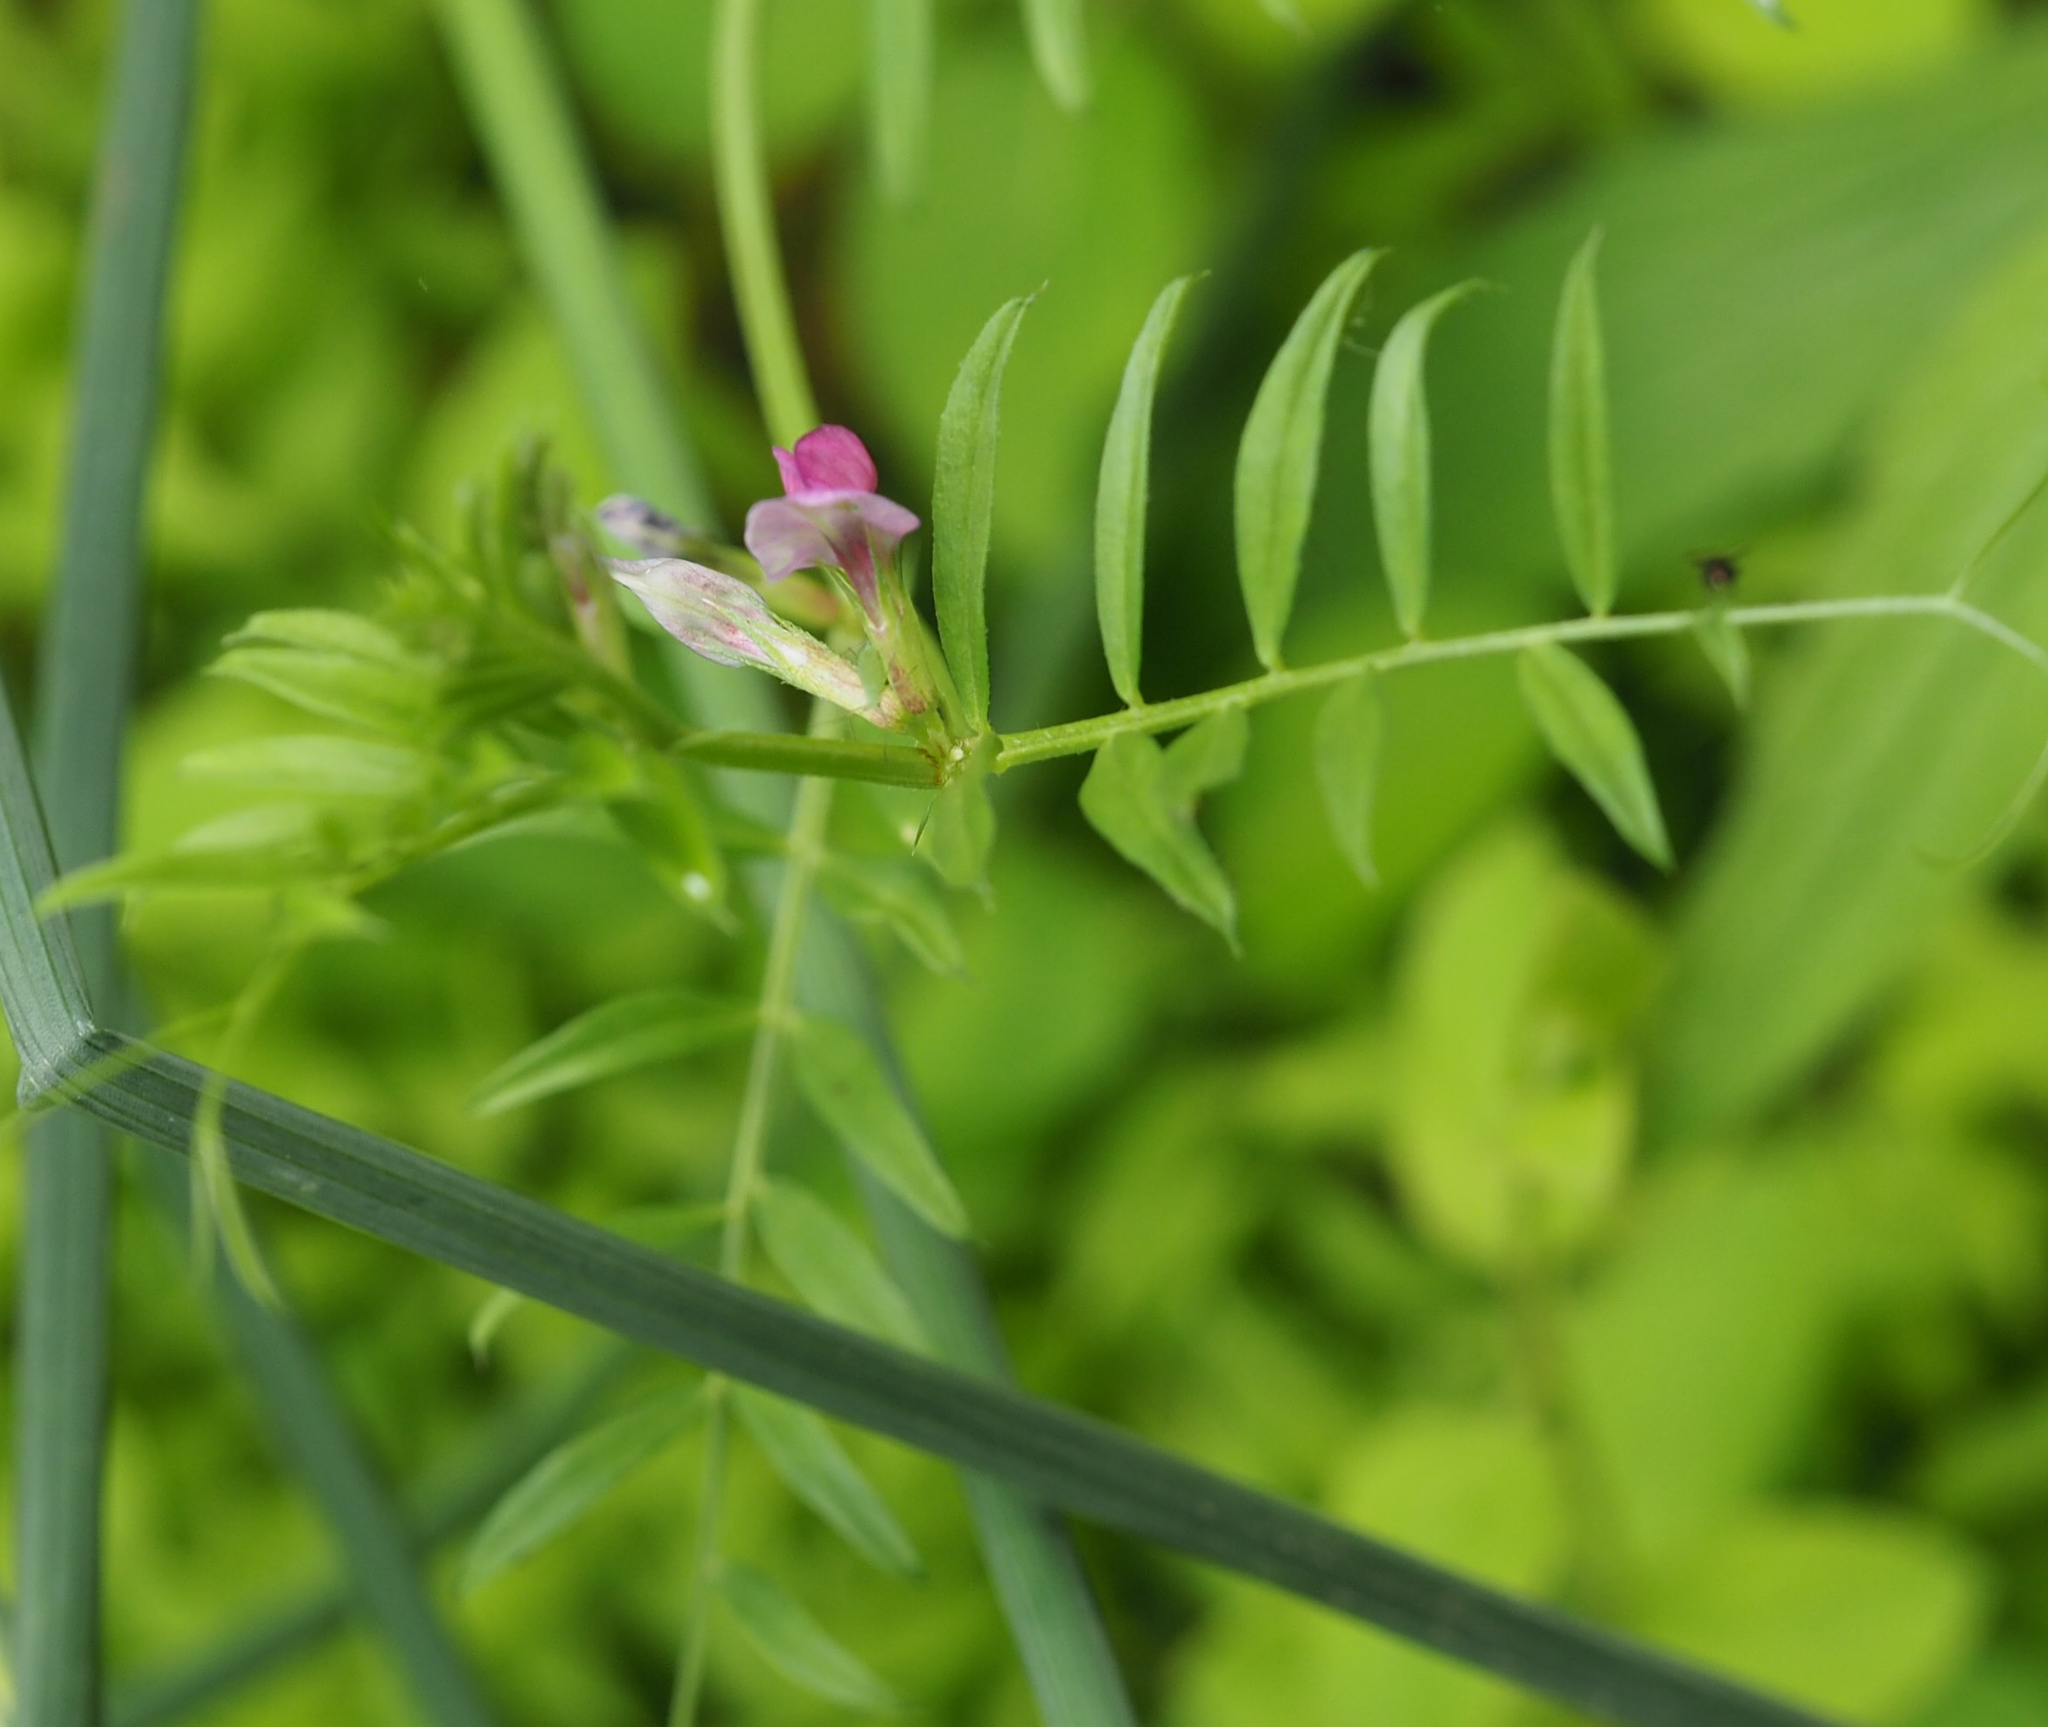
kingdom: Plantae
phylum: Tracheophyta
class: Magnoliopsida
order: Fabales
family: Fabaceae
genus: Vicia
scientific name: Vicia sativa
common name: Garden vetch
